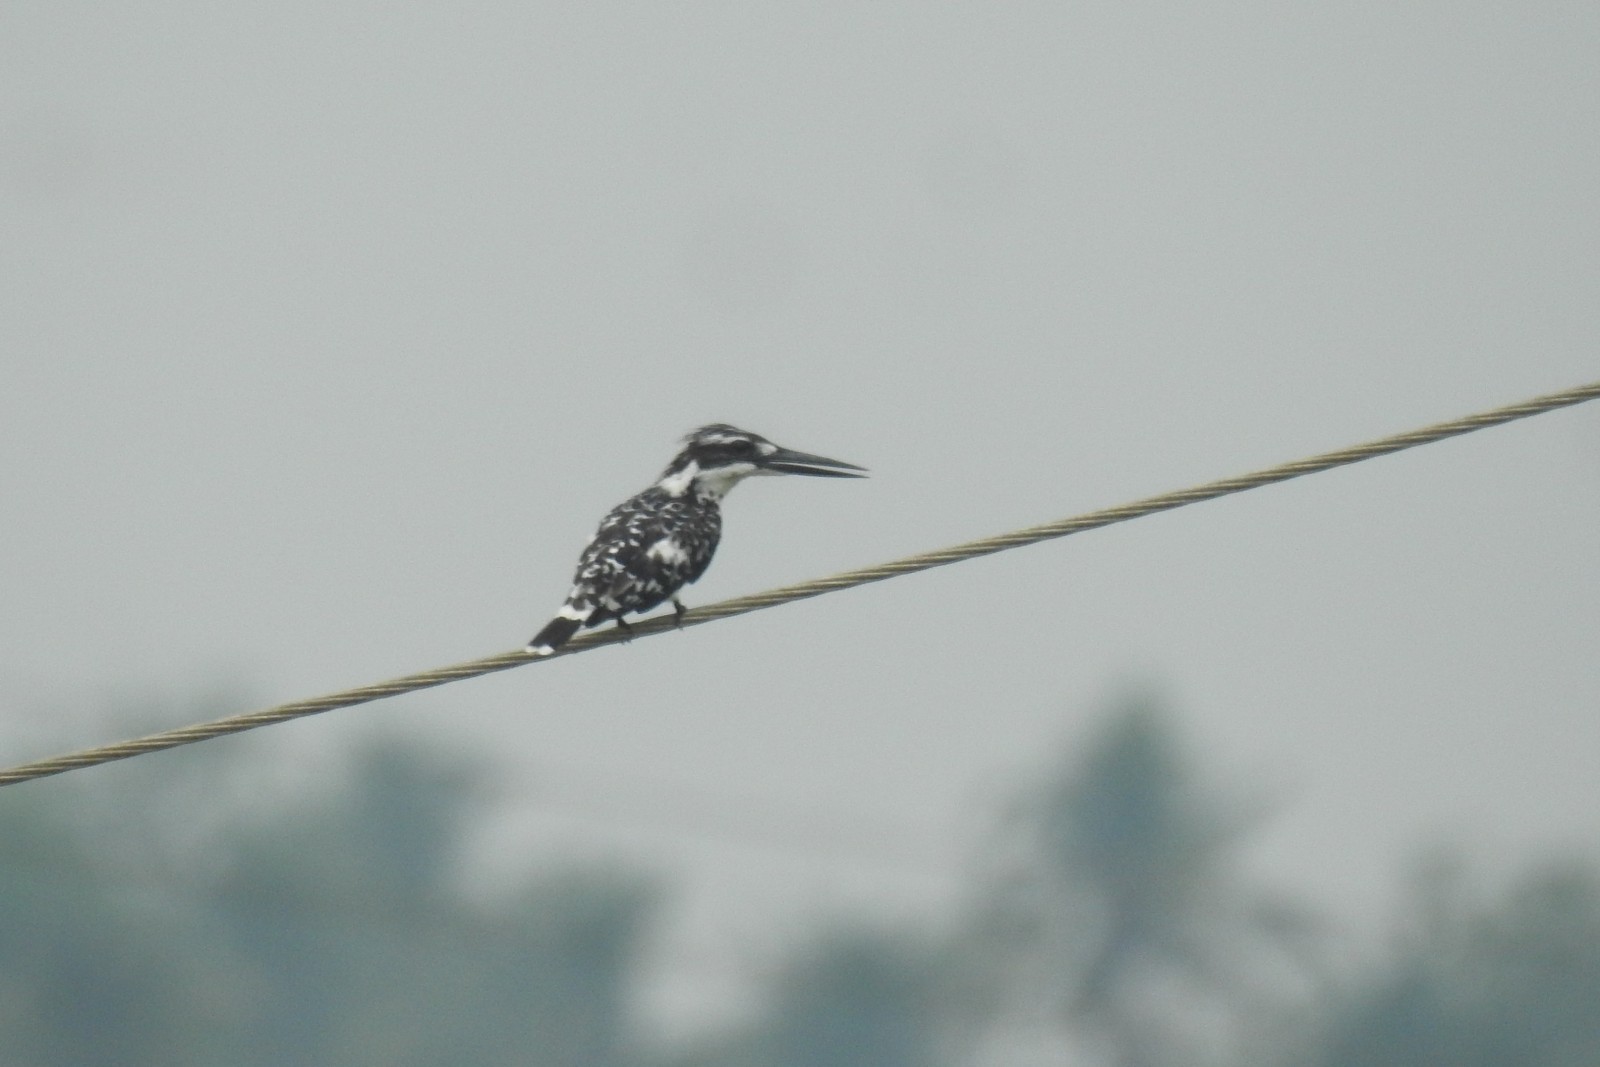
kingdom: Animalia
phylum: Chordata
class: Aves
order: Coraciiformes
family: Alcedinidae
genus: Ceryle
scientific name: Ceryle rudis
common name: Pied kingfisher
